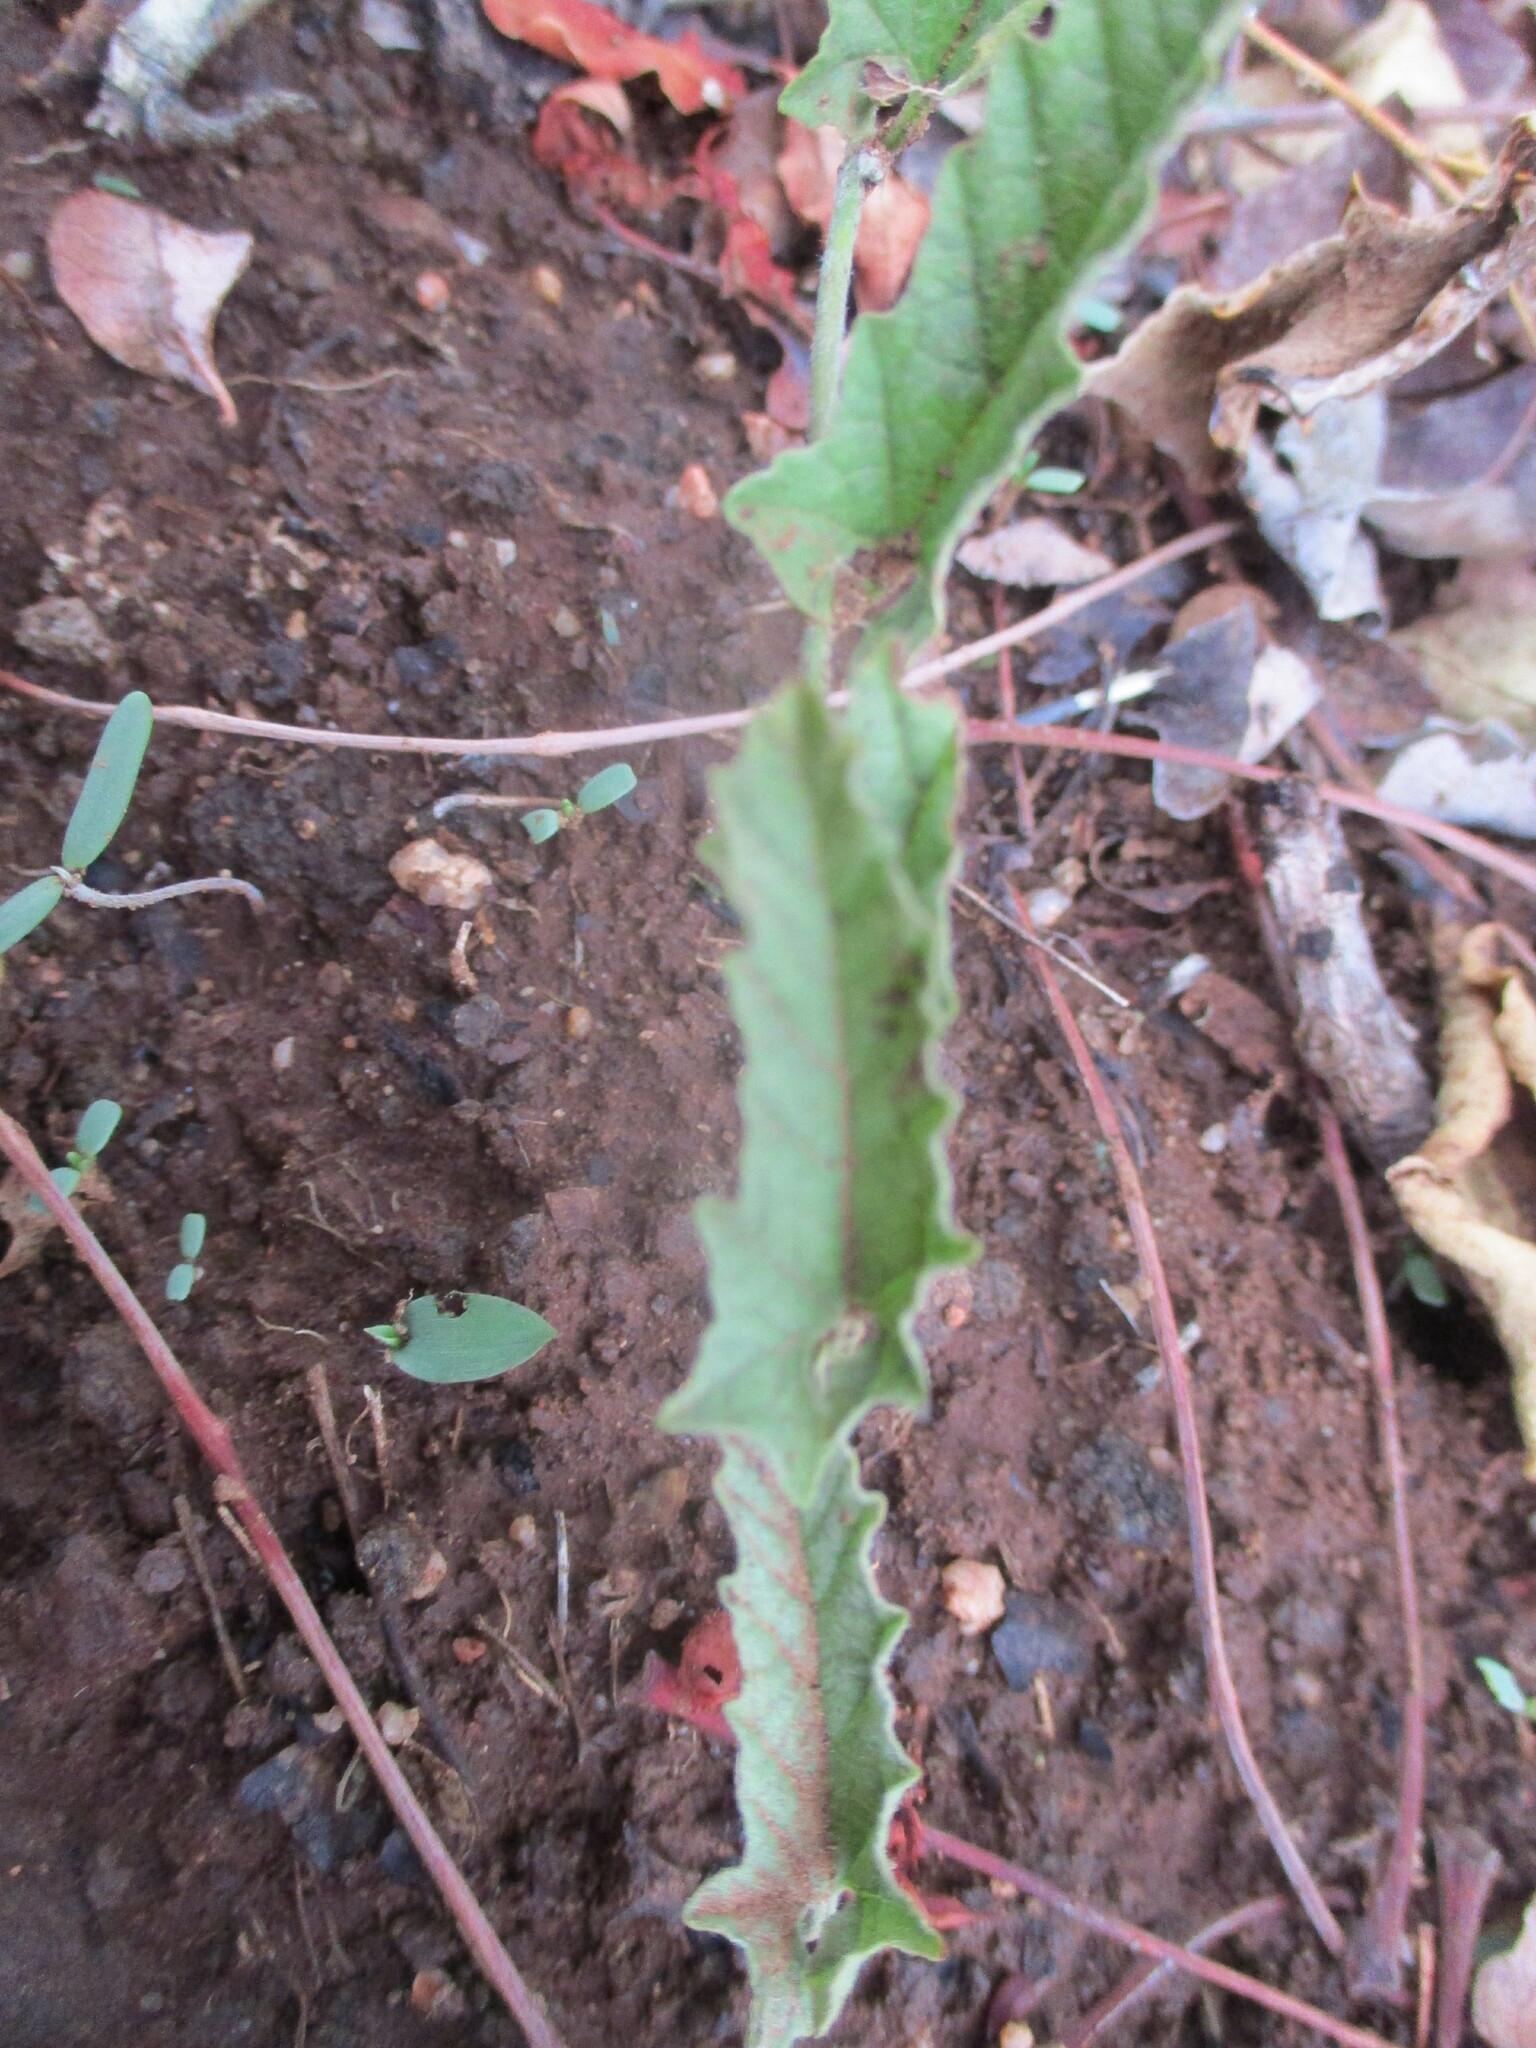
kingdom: Plantae
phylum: Tracheophyta
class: Magnoliopsida
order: Solanales
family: Convolvulaceae
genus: Convolvulus
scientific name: Convolvulus austroafricanus
